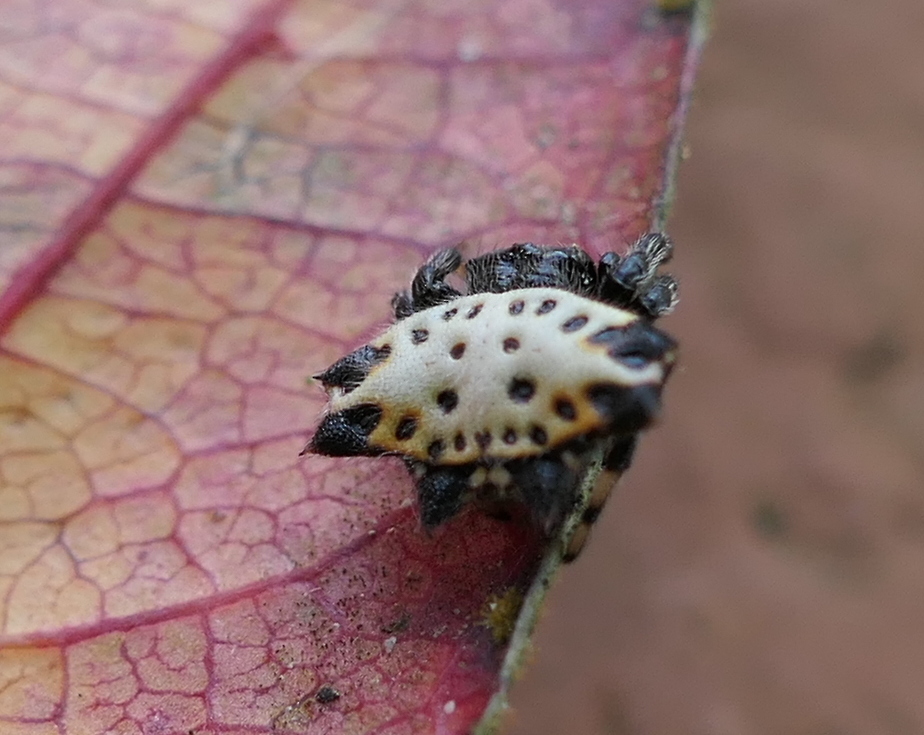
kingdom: Animalia
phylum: Arthropoda
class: Arachnida
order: Araneae
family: Araneidae
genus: Gasteracantha
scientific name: Gasteracantha cancriformis
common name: Orb weavers
